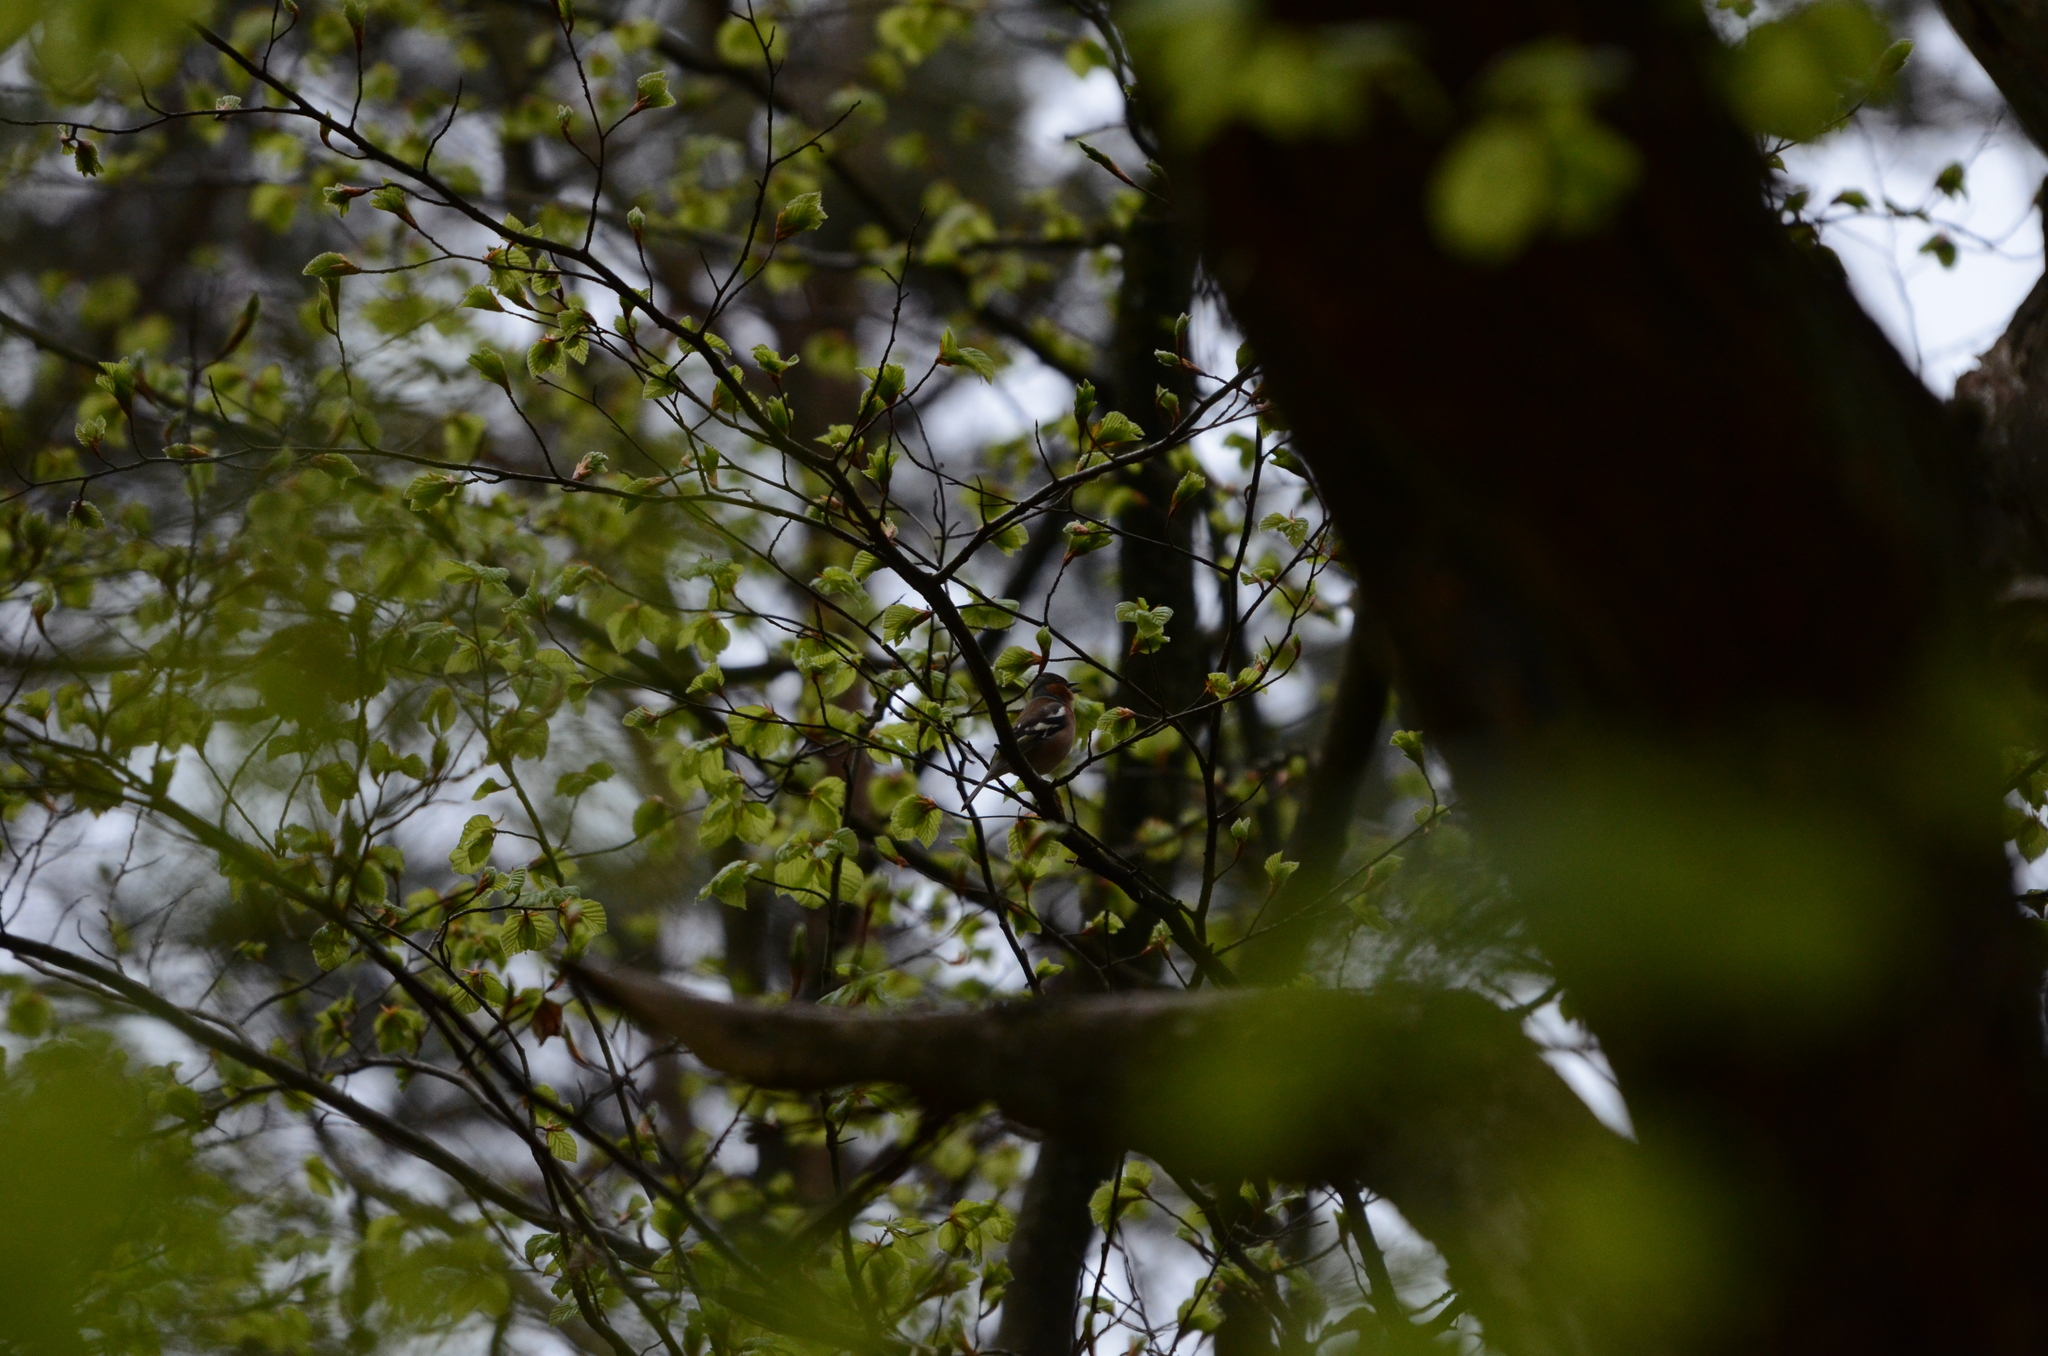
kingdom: Animalia
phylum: Chordata
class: Aves
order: Passeriformes
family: Fringillidae
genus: Fringilla
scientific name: Fringilla coelebs
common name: Common chaffinch
